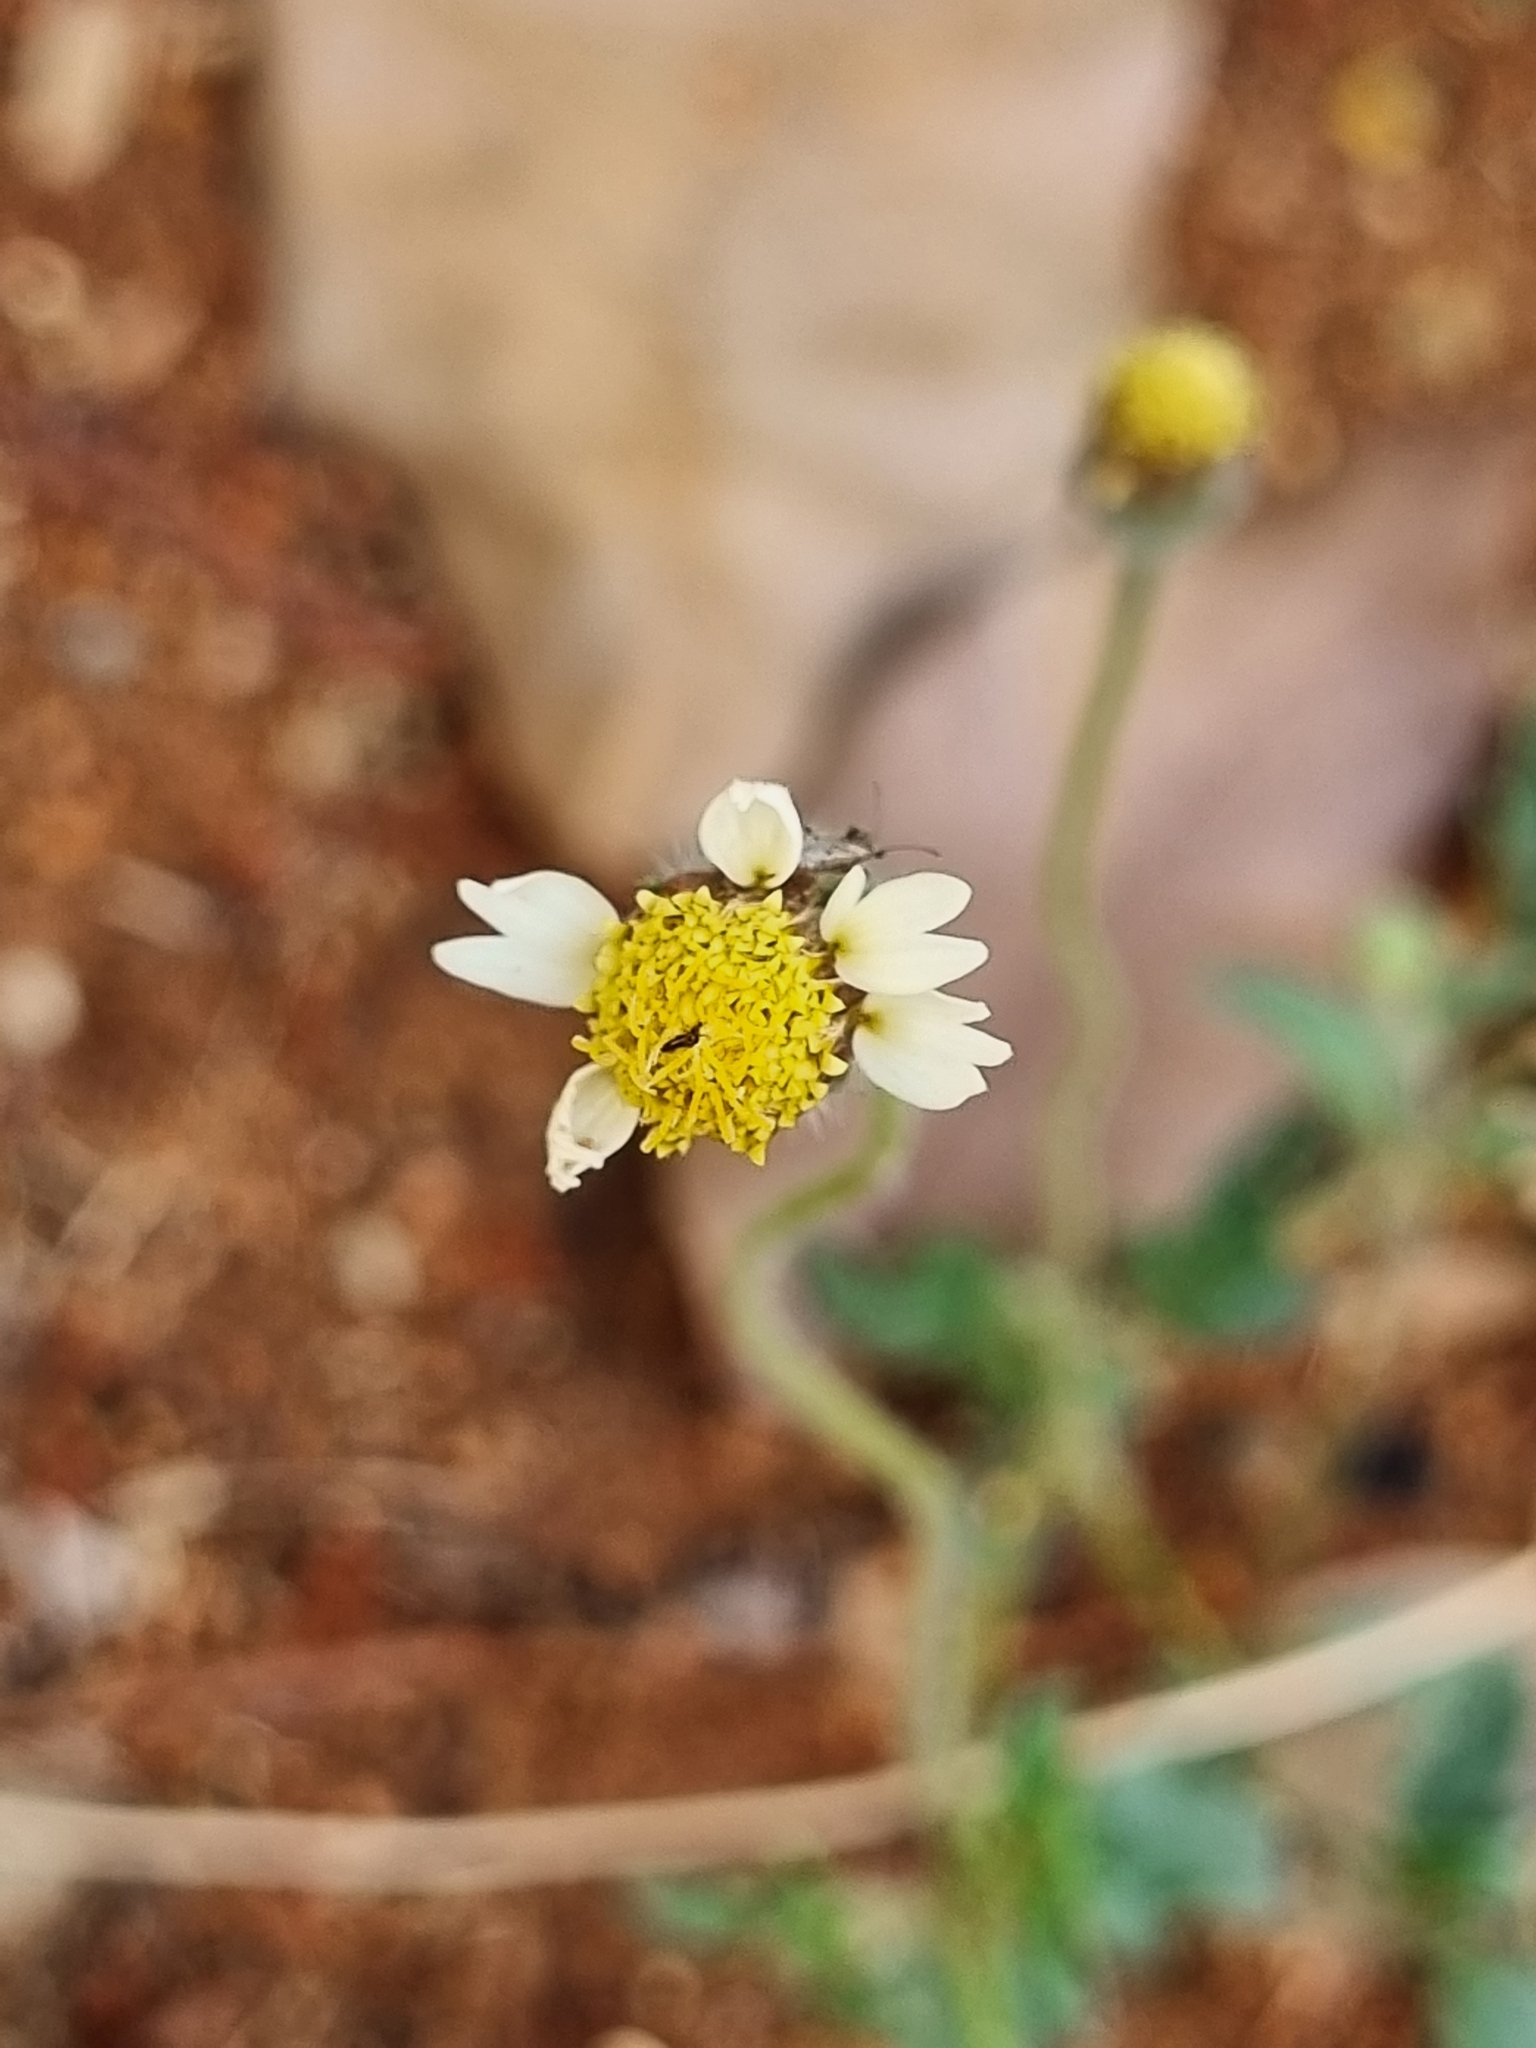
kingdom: Plantae
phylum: Tracheophyta
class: Magnoliopsida
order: Asterales
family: Asteraceae
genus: Tridax
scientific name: Tridax procumbens
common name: Coatbuttons
